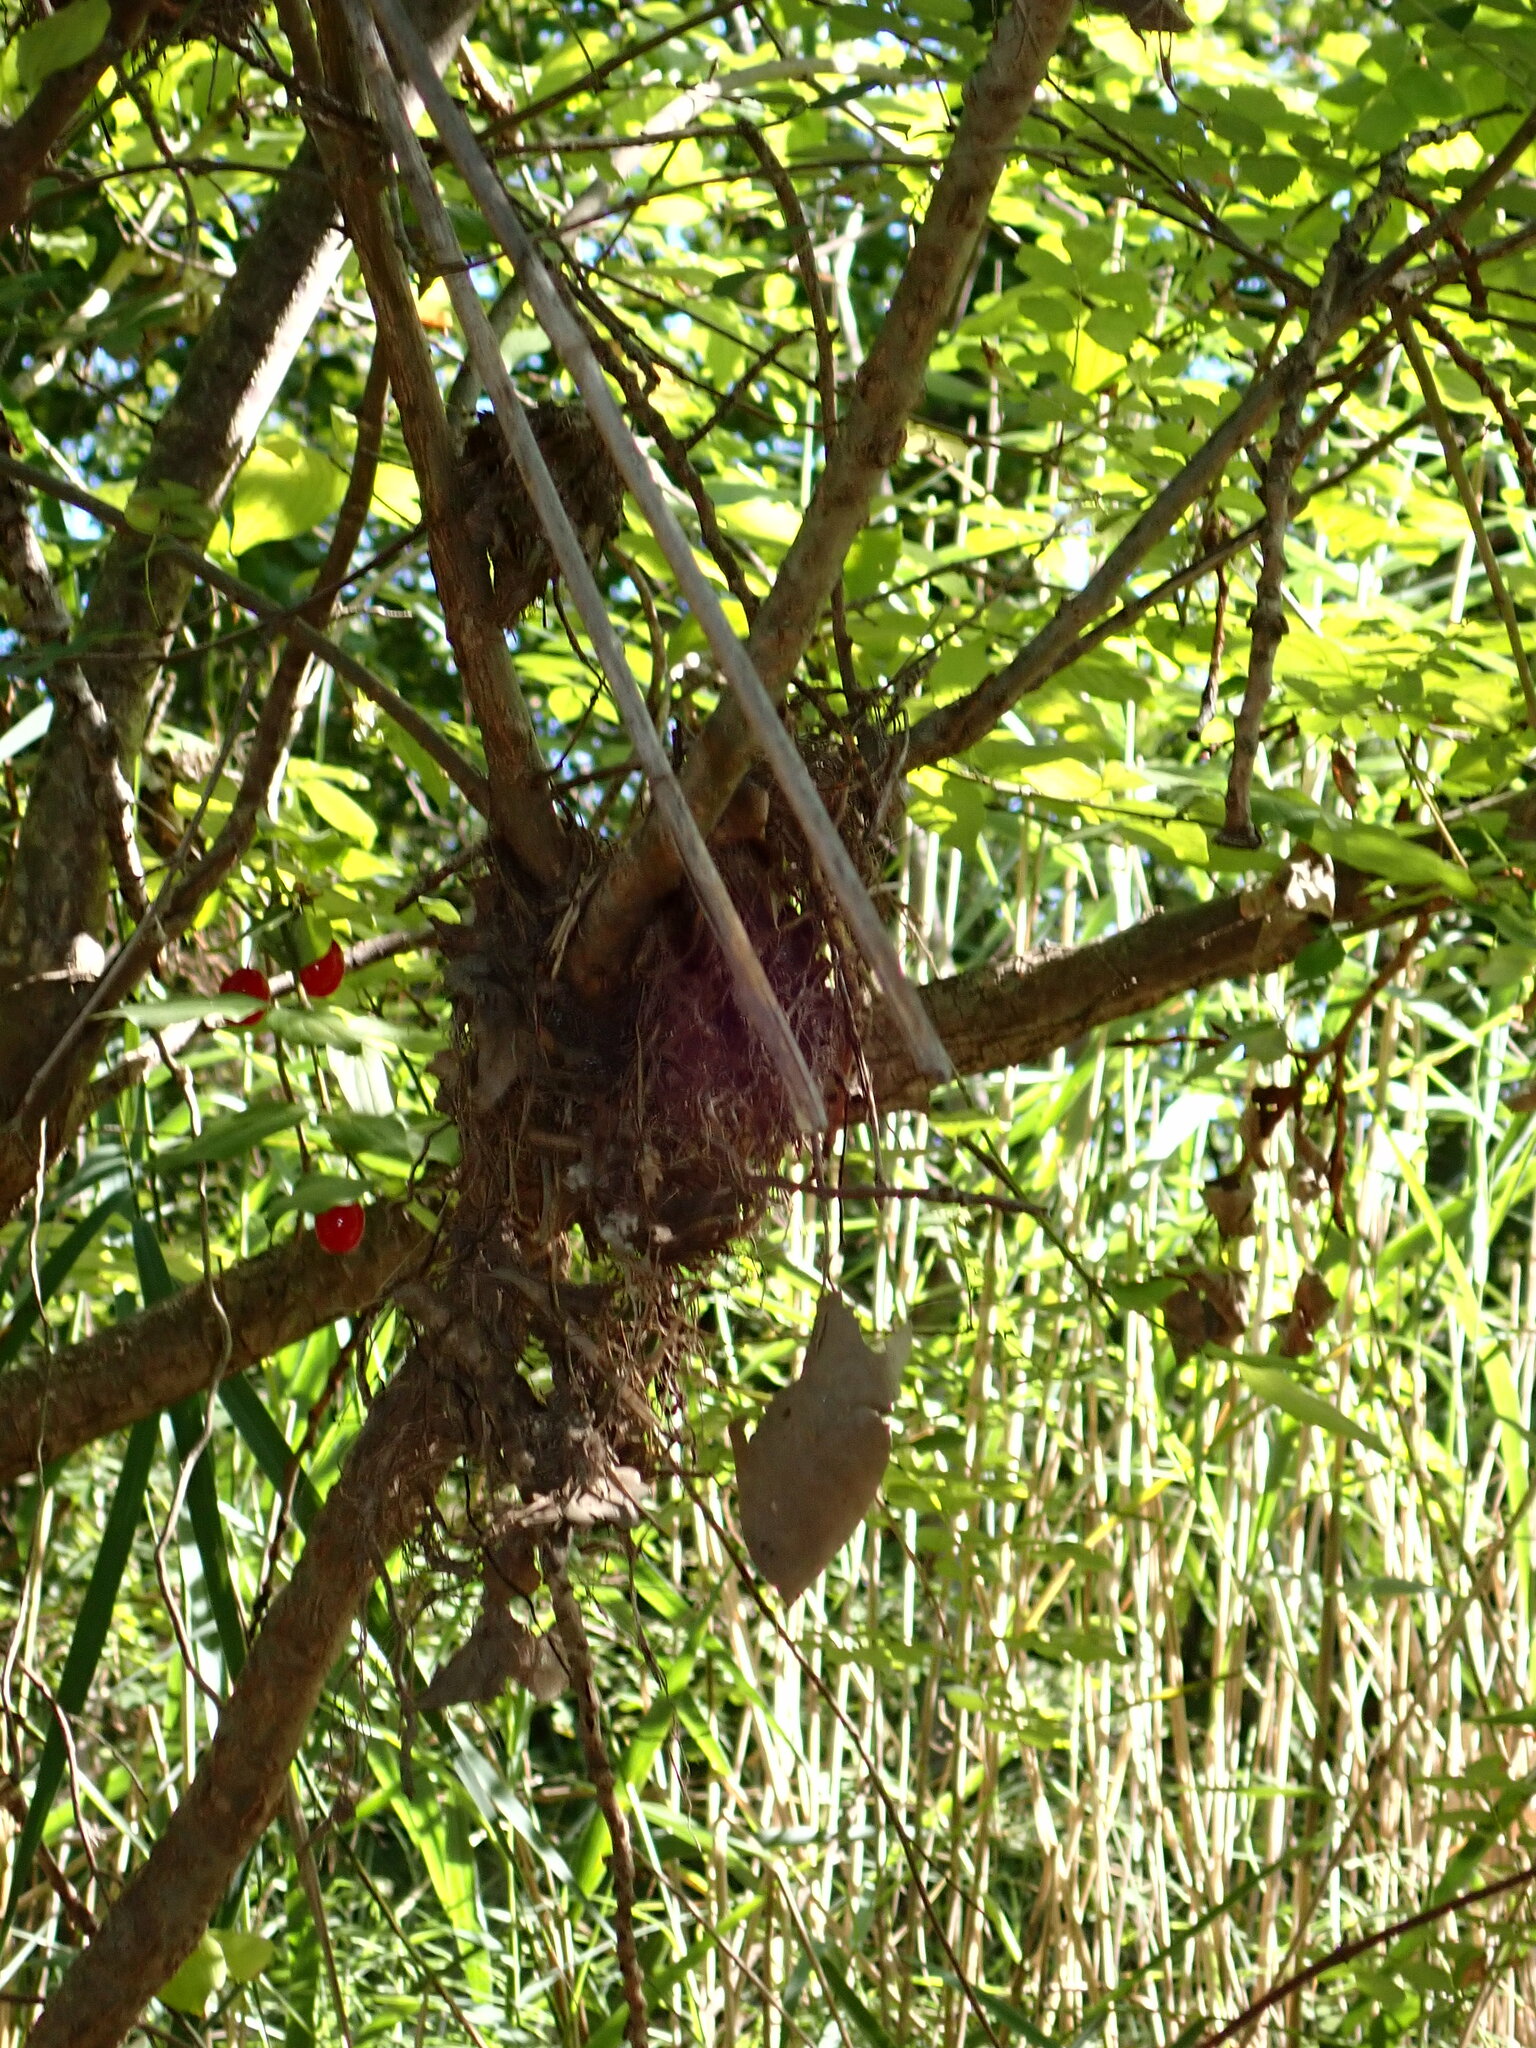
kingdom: Plantae
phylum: Tracheophyta
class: Magnoliopsida
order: Cornales
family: Cornaceae
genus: Cornus
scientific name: Cornus mas
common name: Cornelian-cherry
